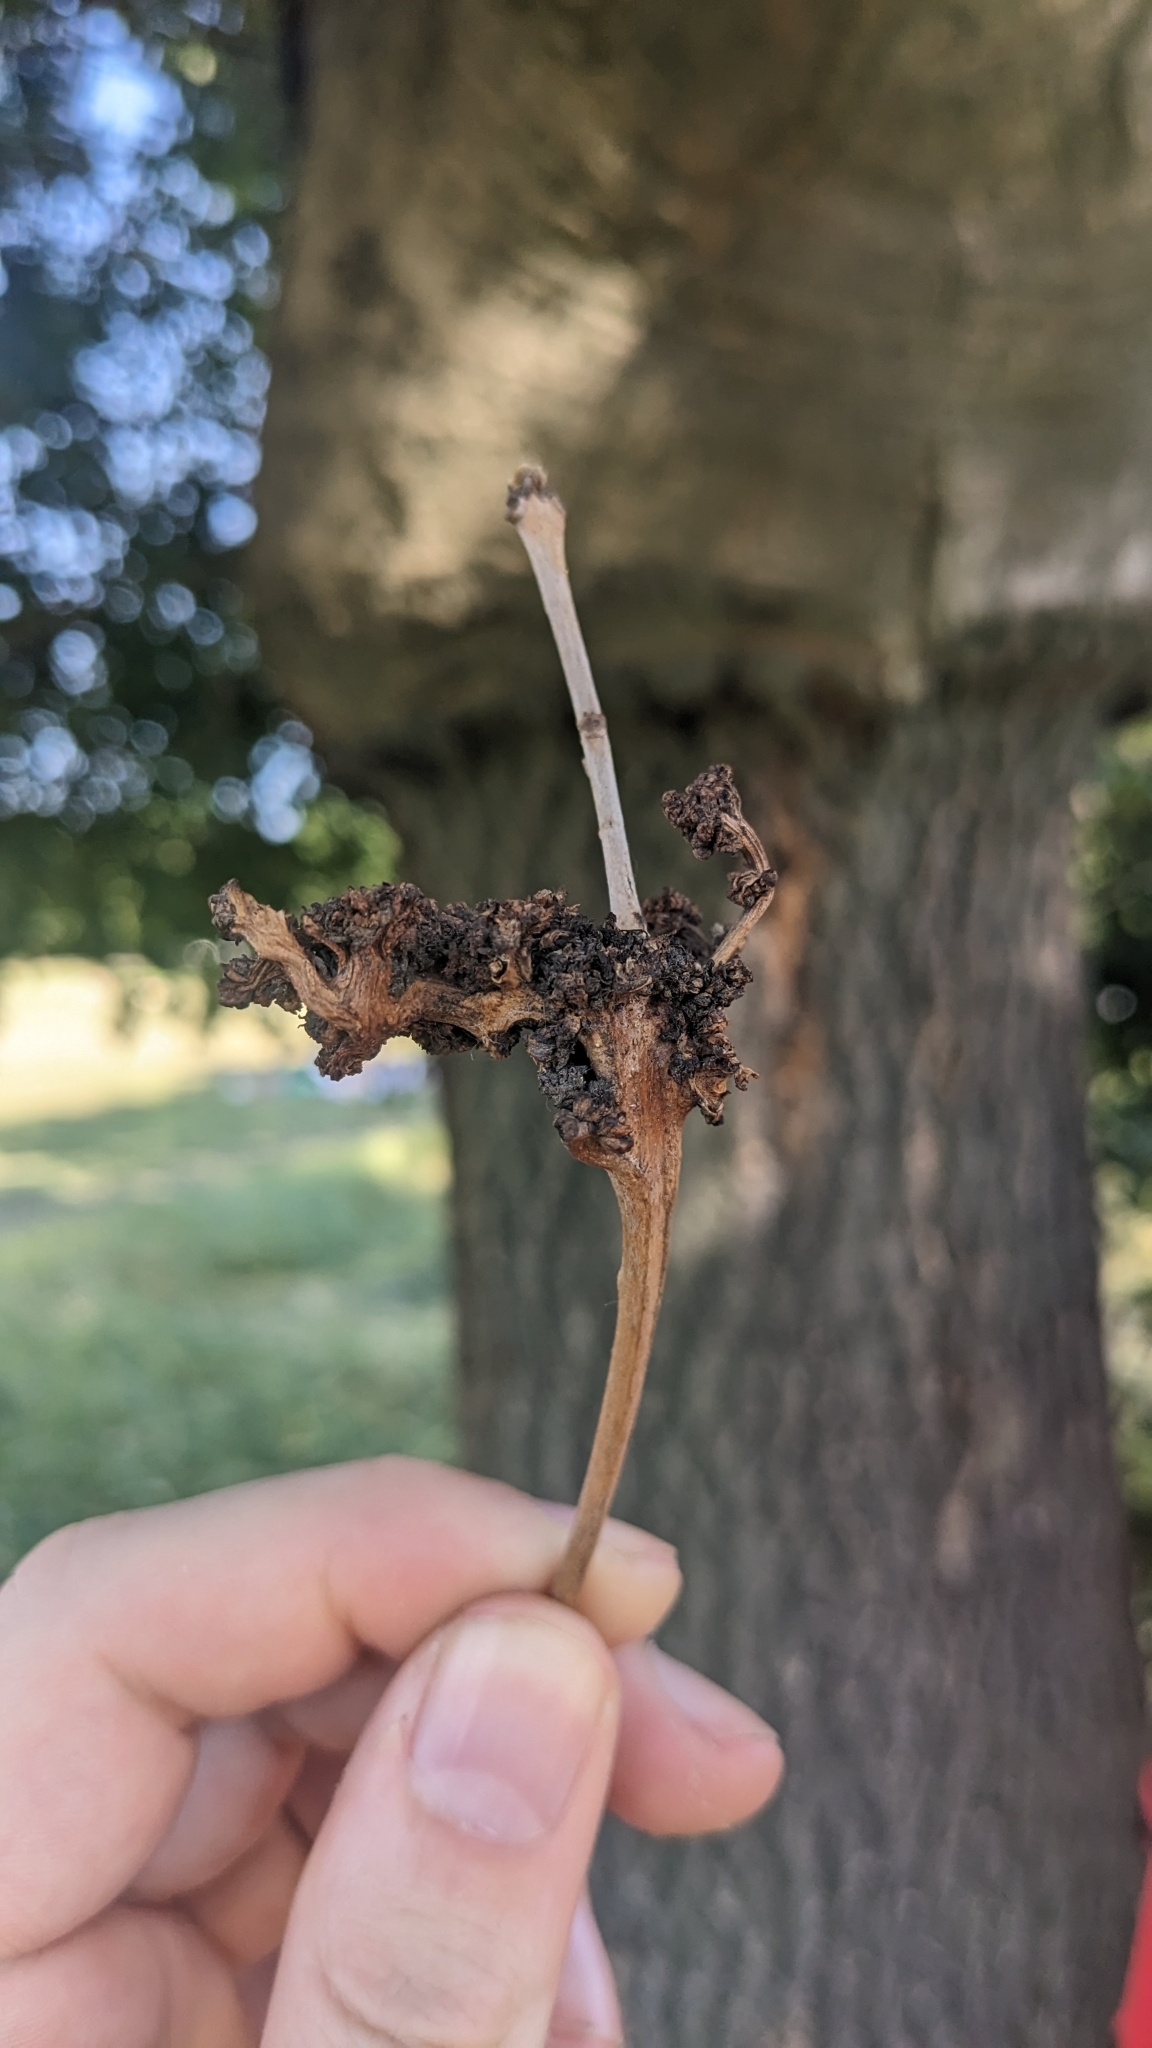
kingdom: Animalia
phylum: Arthropoda
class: Arachnida
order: Trombidiformes
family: Eriophyidae
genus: Aceria
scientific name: Aceria fraxinivora
